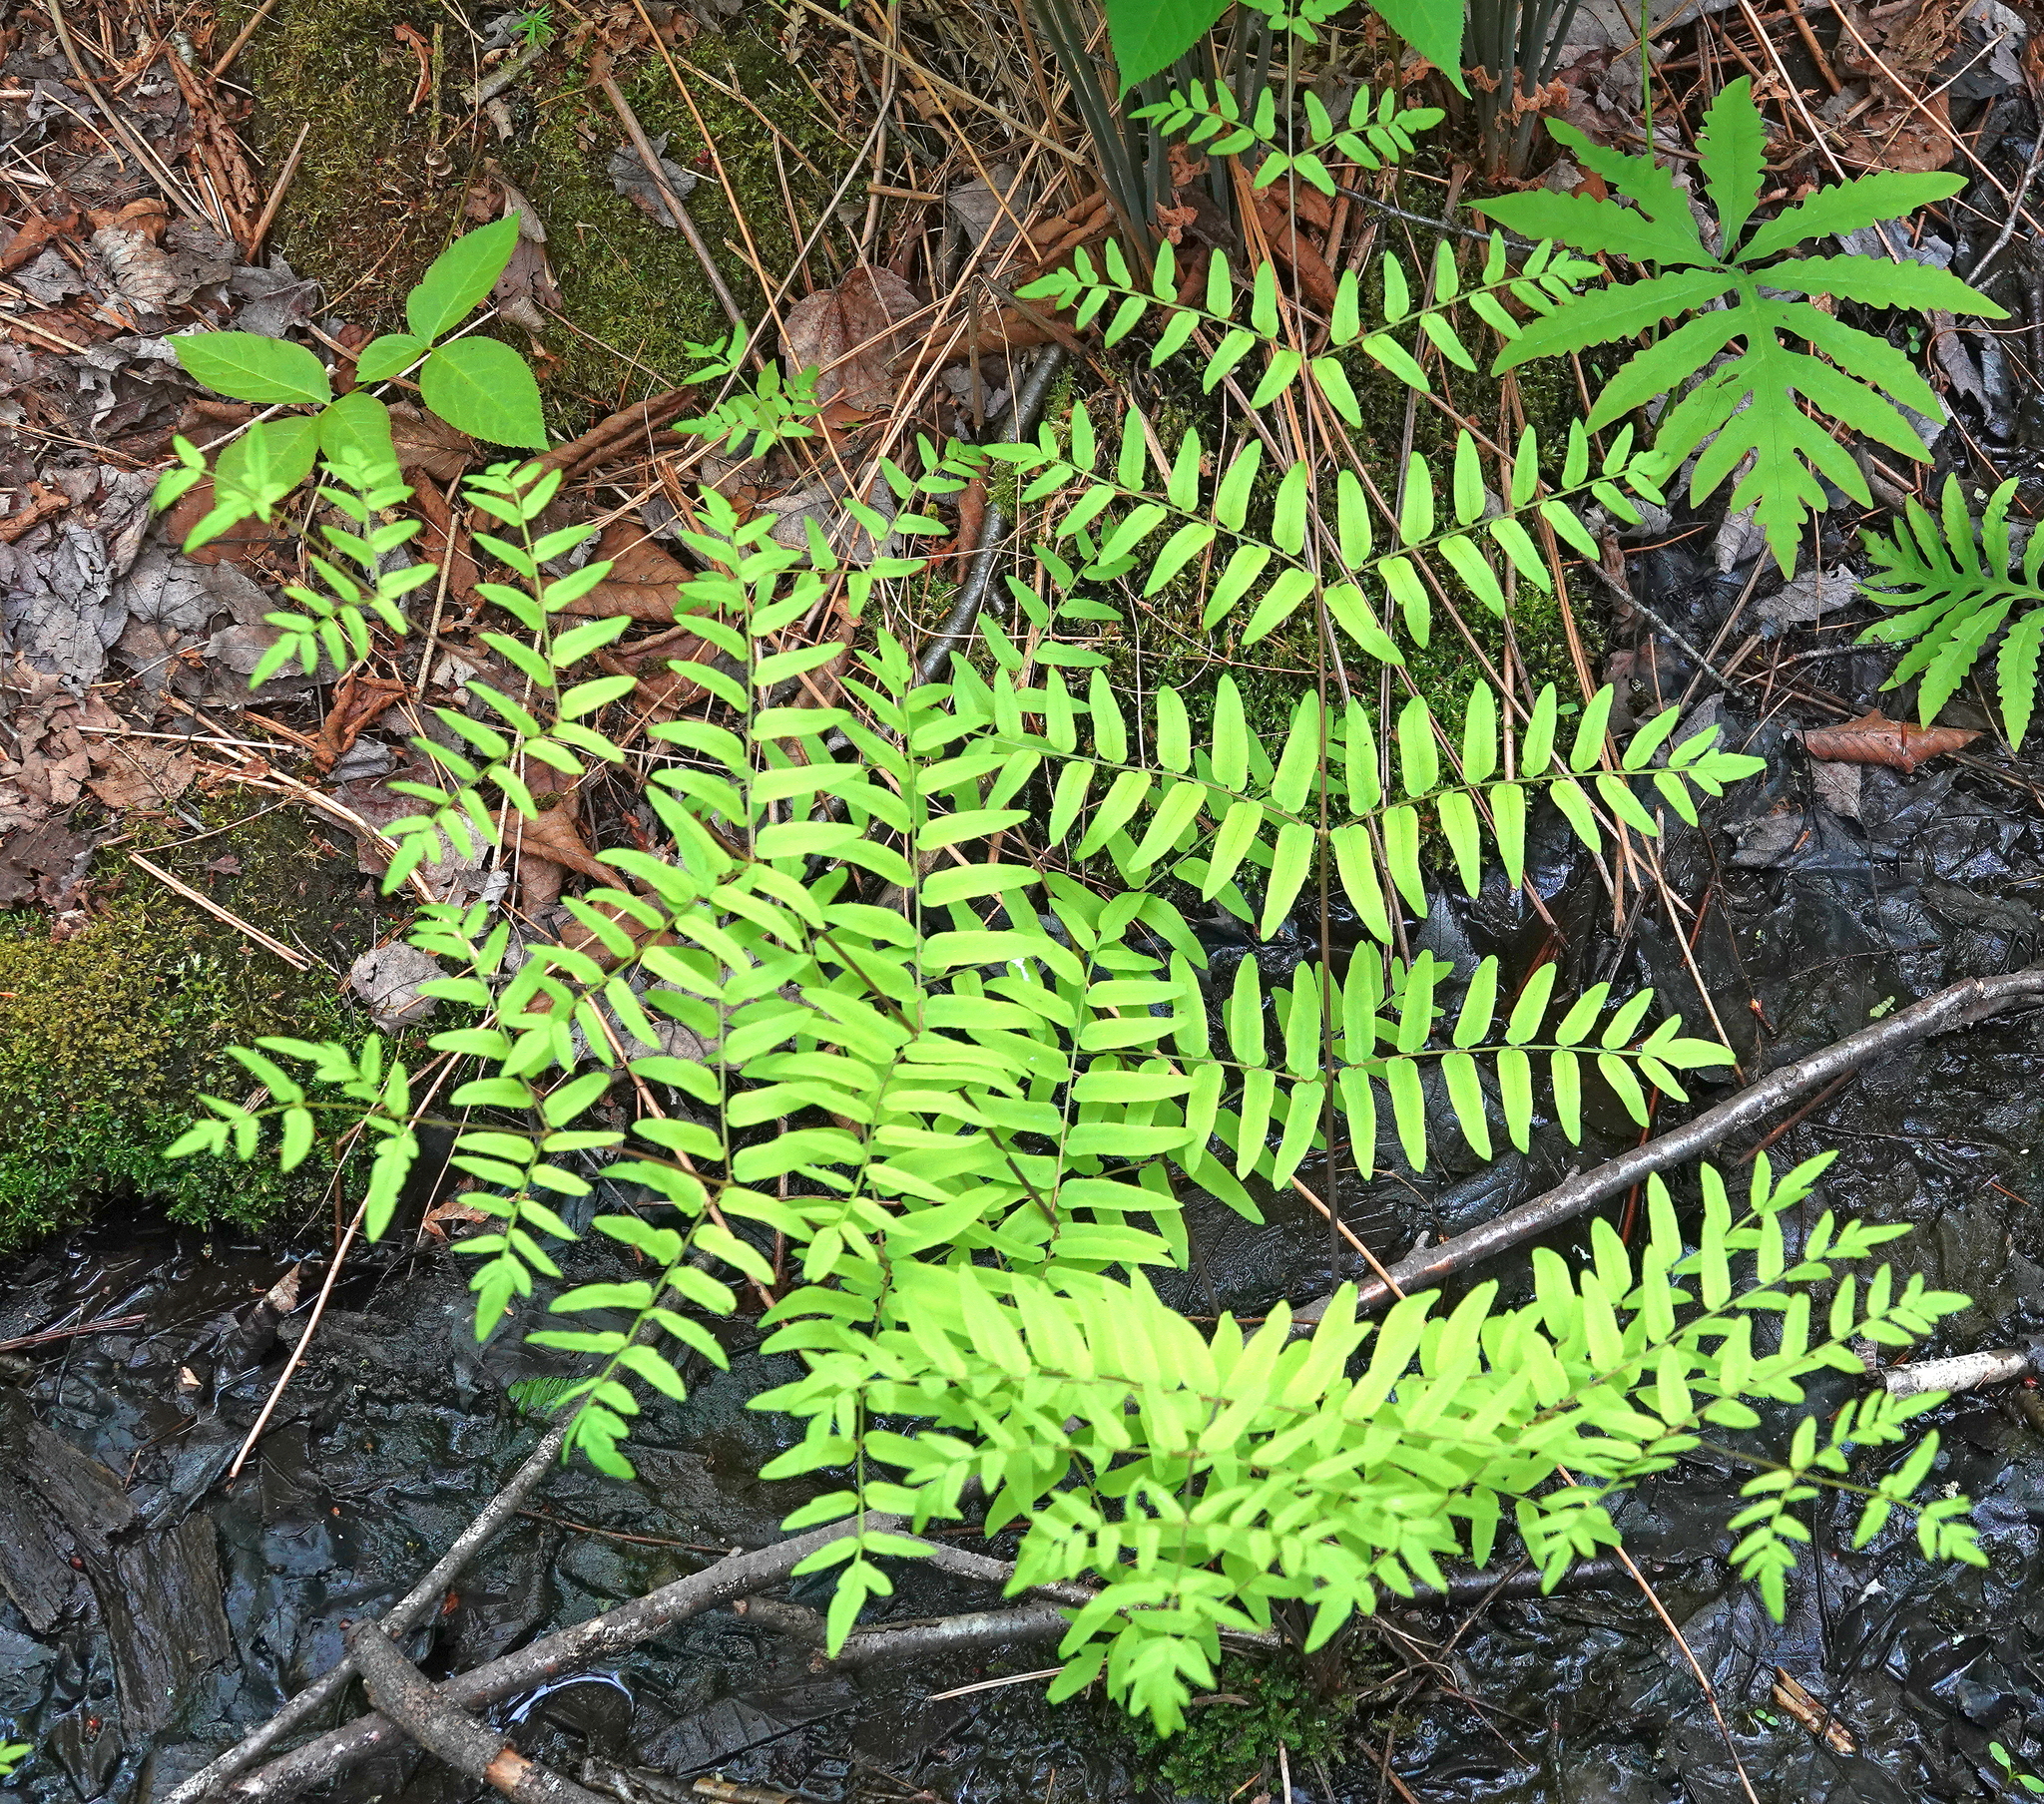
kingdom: Plantae
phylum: Tracheophyta
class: Polypodiopsida
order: Osmundales
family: Osmundaceae
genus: Osmunda
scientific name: Osmunda spectabilis
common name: American royal fern
